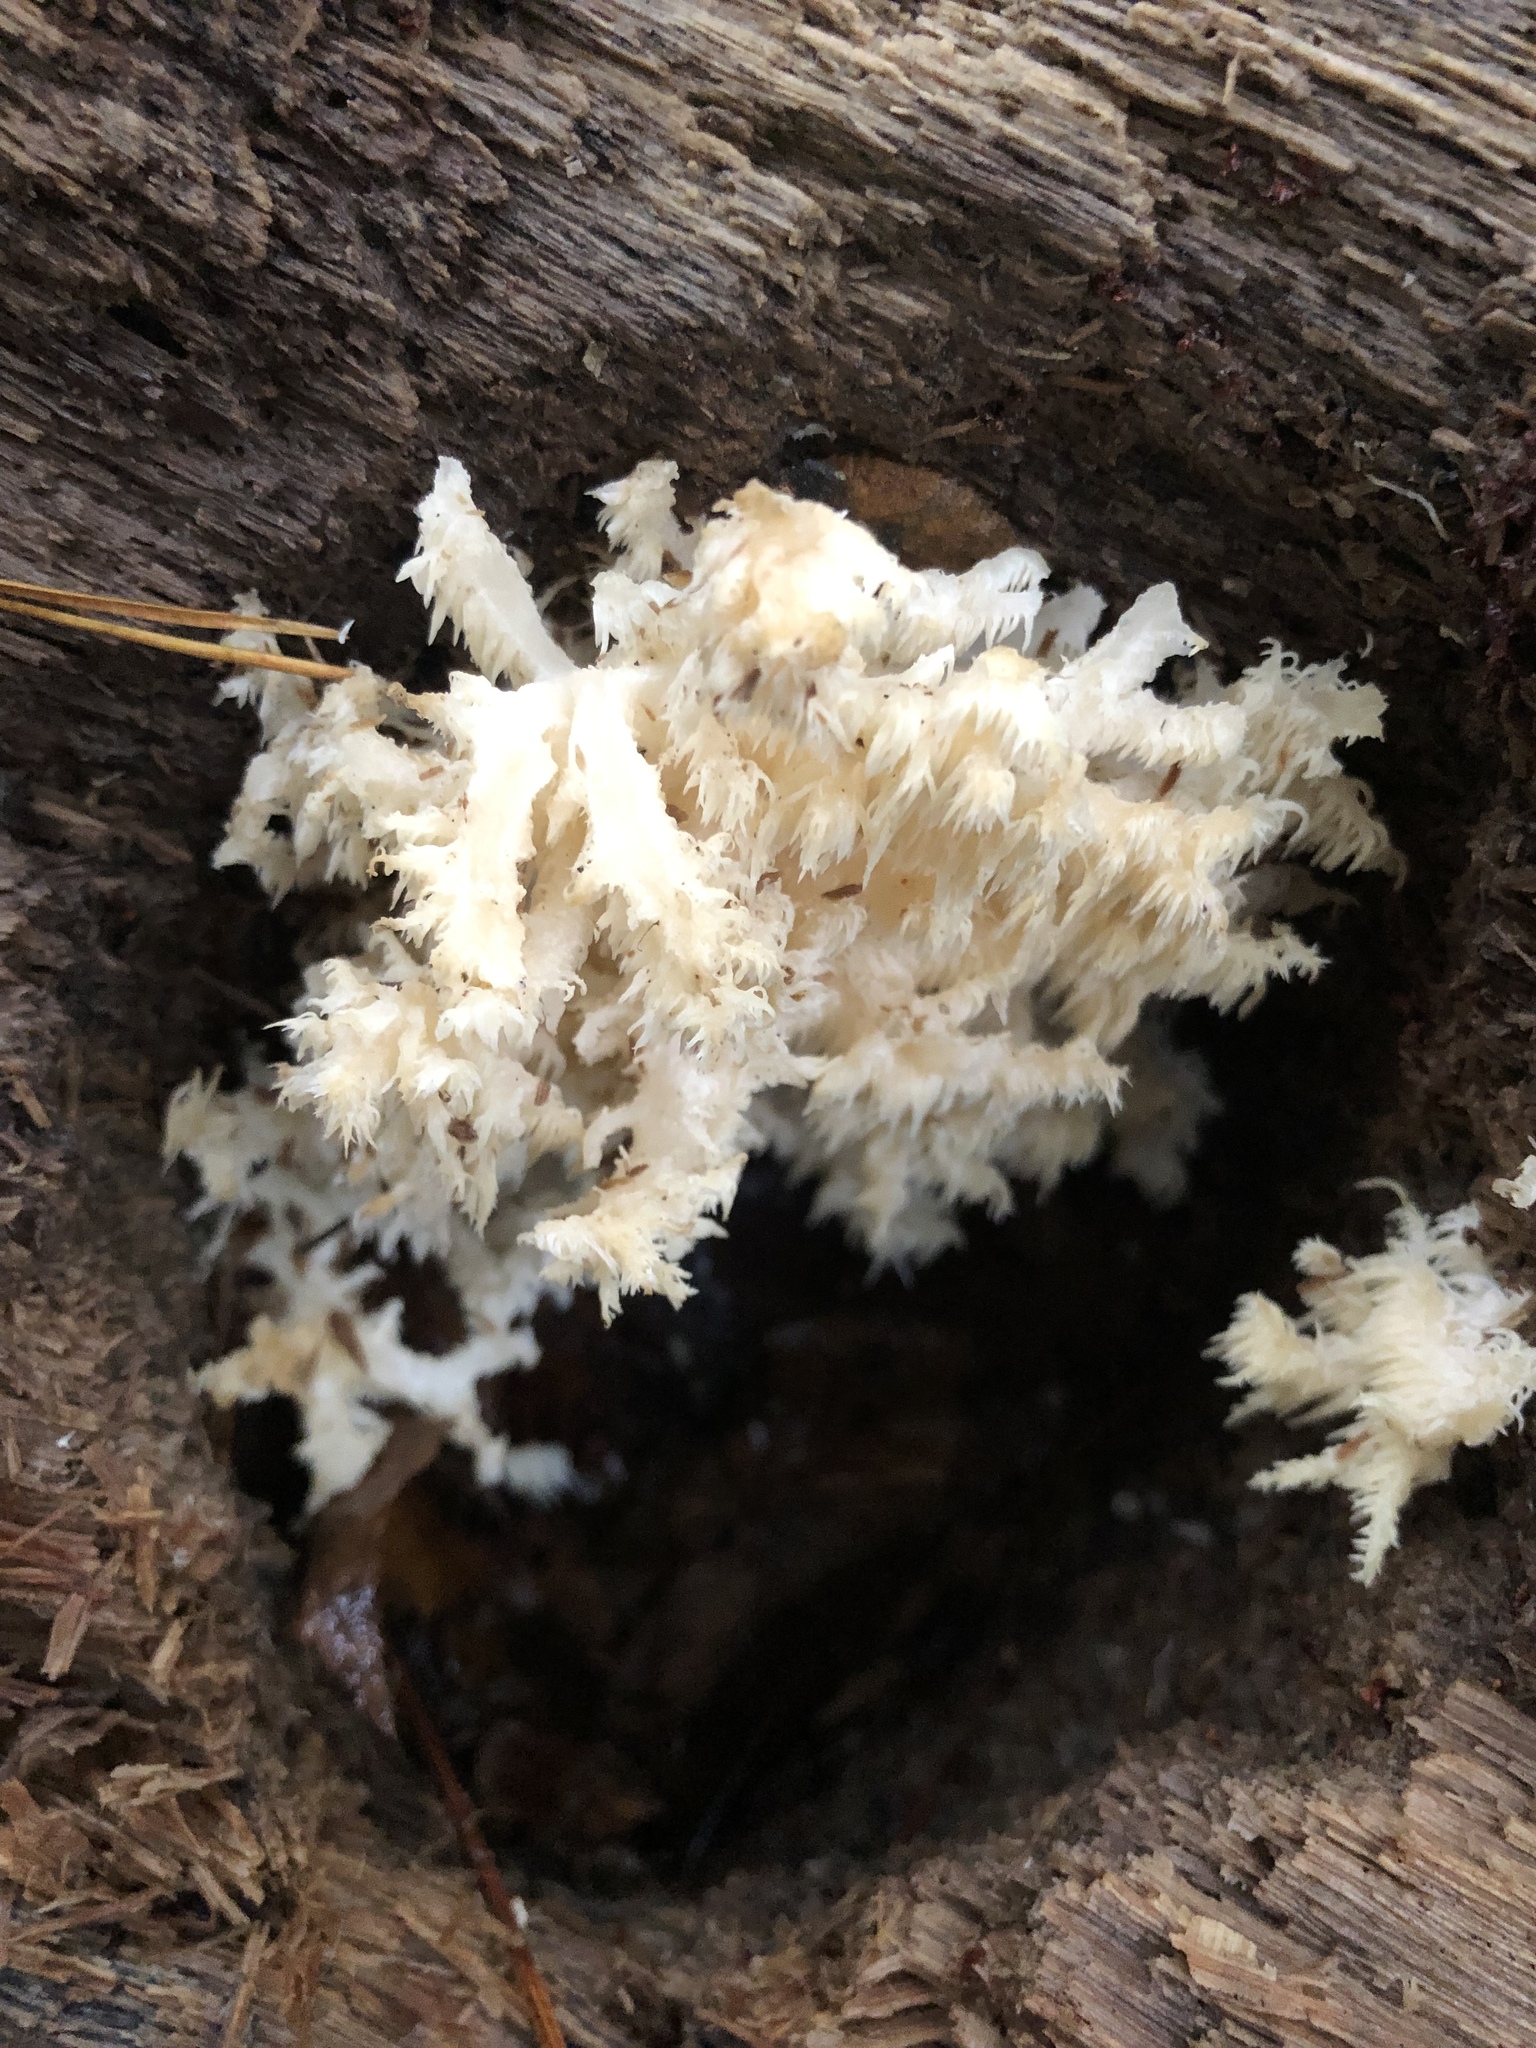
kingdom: Fungi
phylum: Basidiomycota
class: Agaricomycetes
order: Russulales
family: Hericiaceae
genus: Hericium
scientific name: Hericium coralloides
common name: Coral tooth
